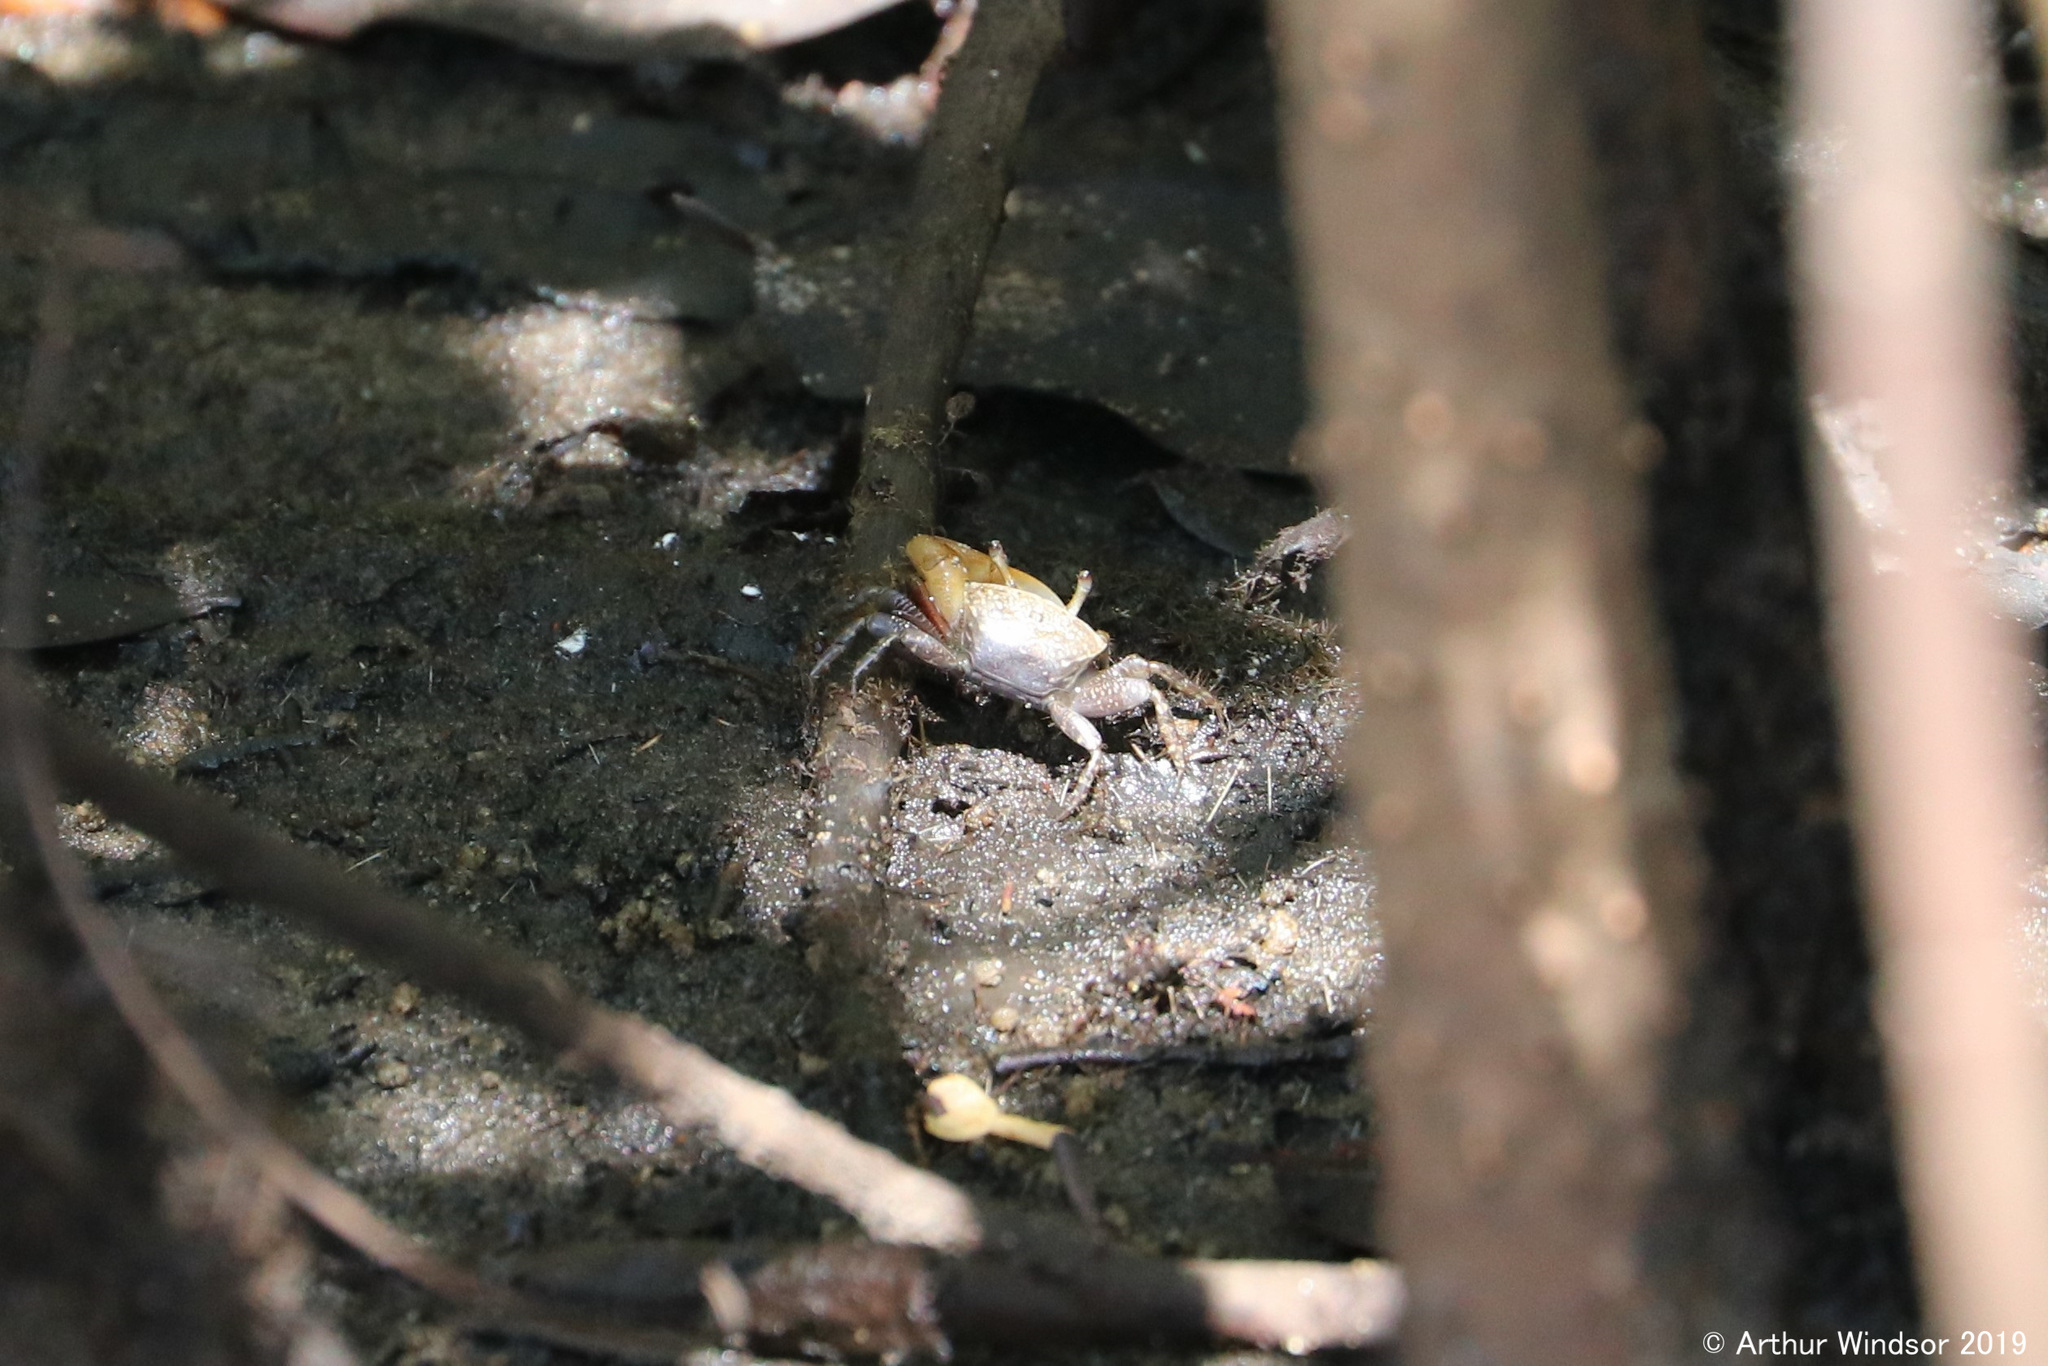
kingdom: Animalia
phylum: Arthropoda
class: Malacostraca
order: Decapoda
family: Ocypodidae
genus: Leptuca
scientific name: Leptuca pugilator
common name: Atlantic sand fiddler crab
